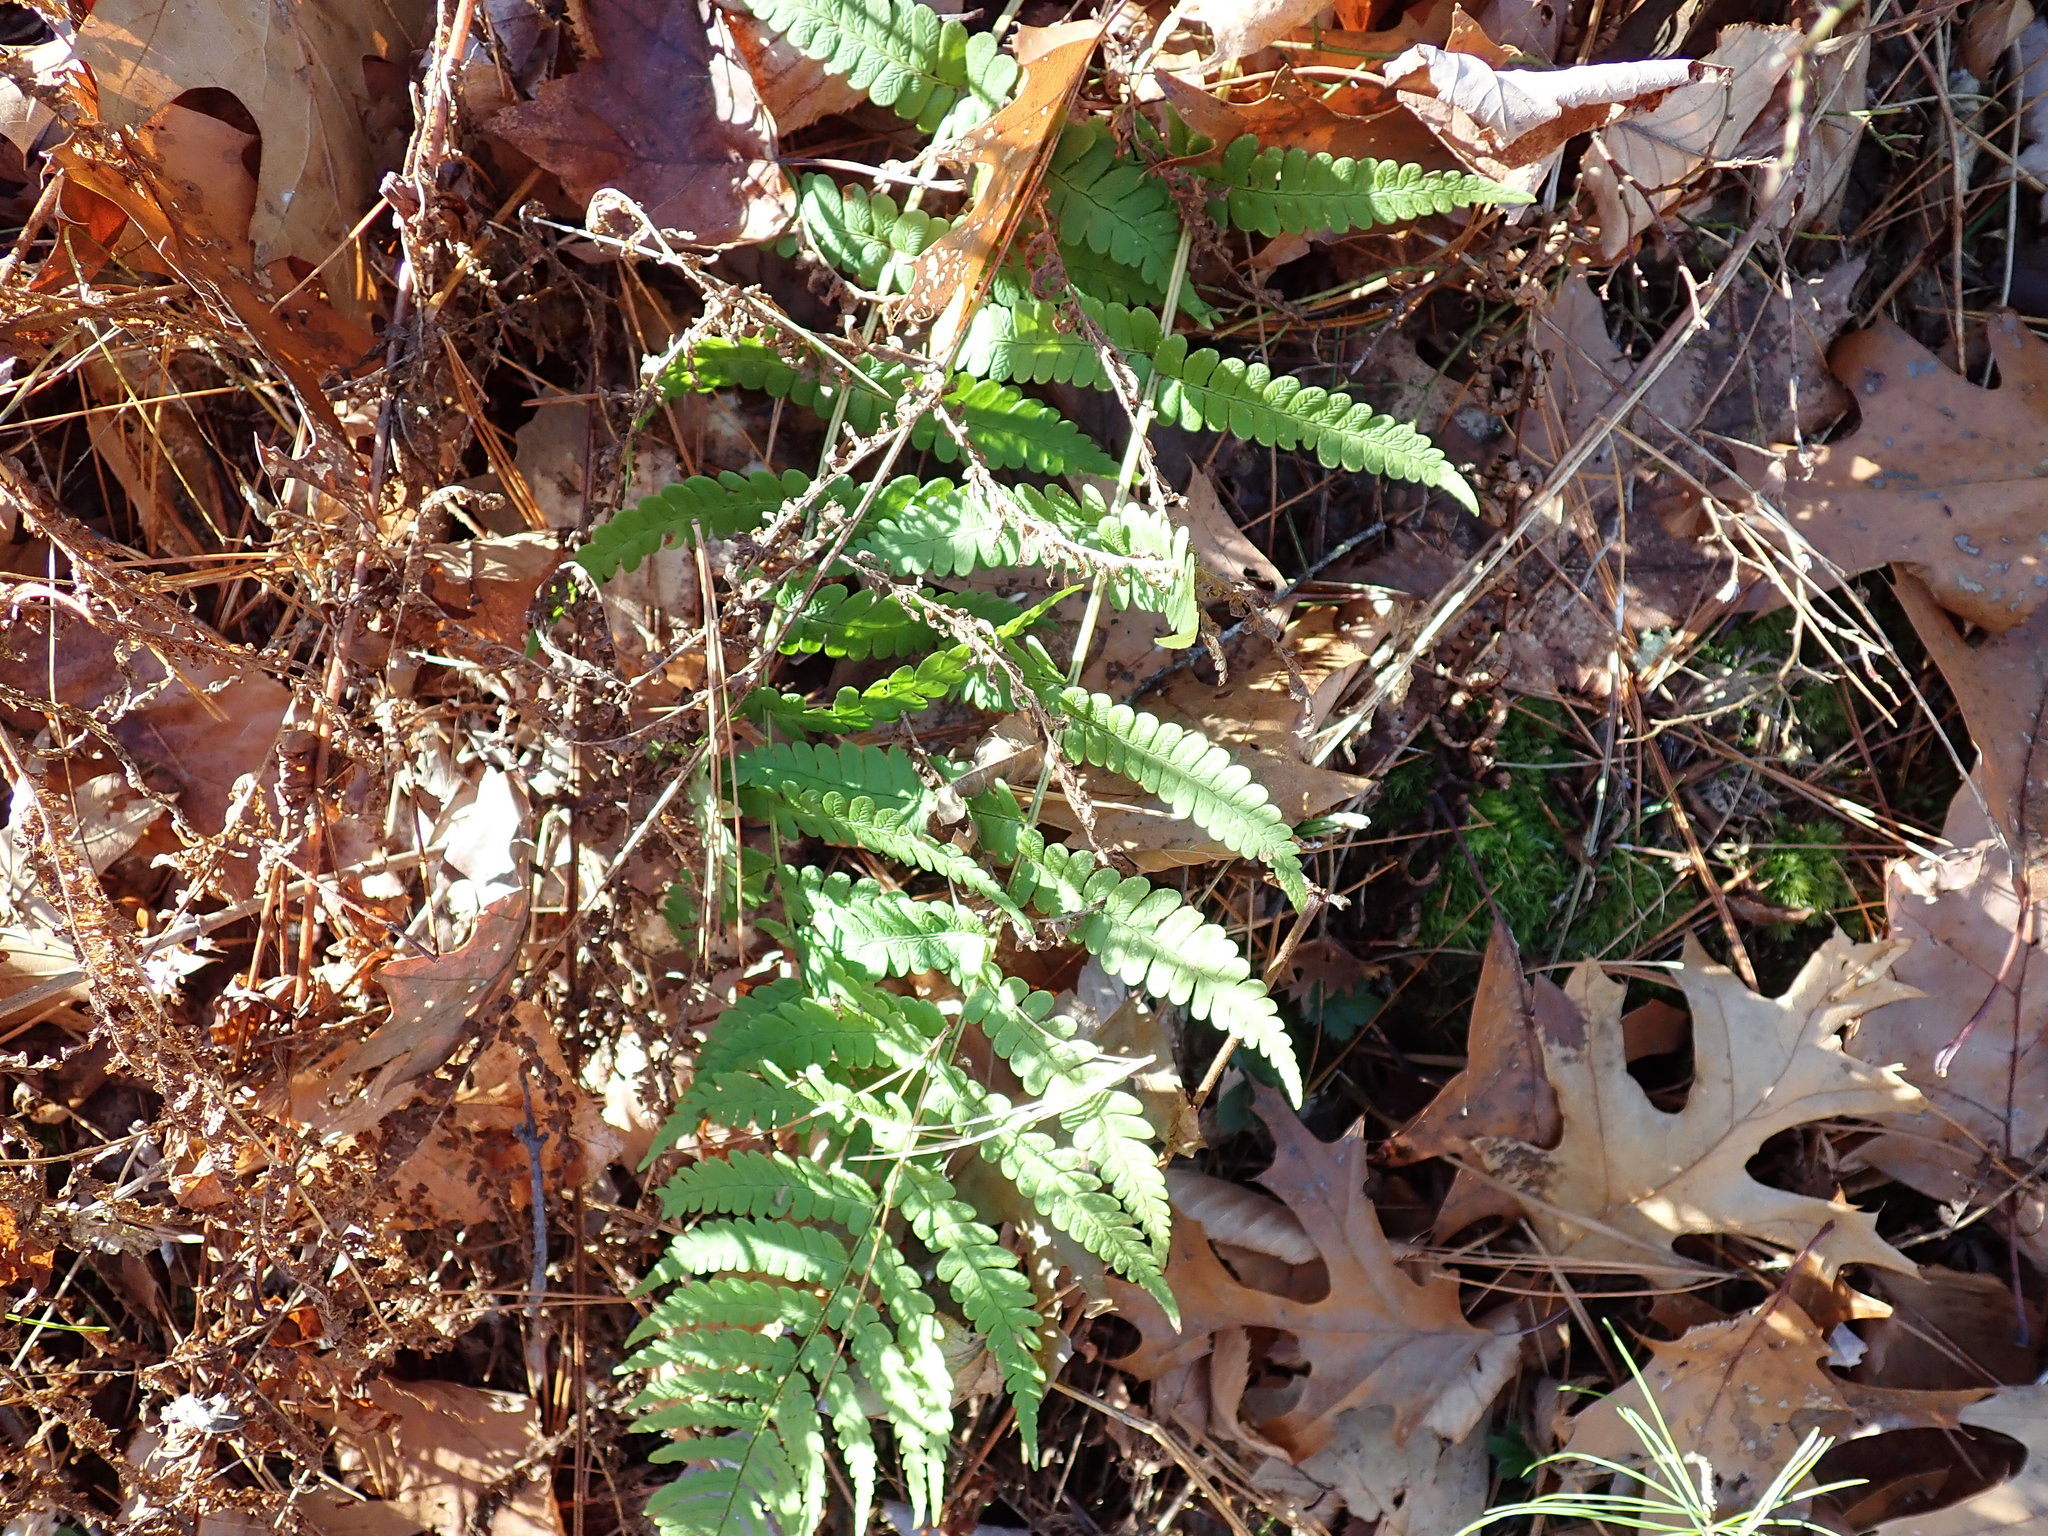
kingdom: Plantae
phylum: Tracheophyta
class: Polypodiopsida
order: Polypodiales
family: Dryopteridaceae
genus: Dryopteris
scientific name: Dryopteris marginalis
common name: Marginal wood fern
